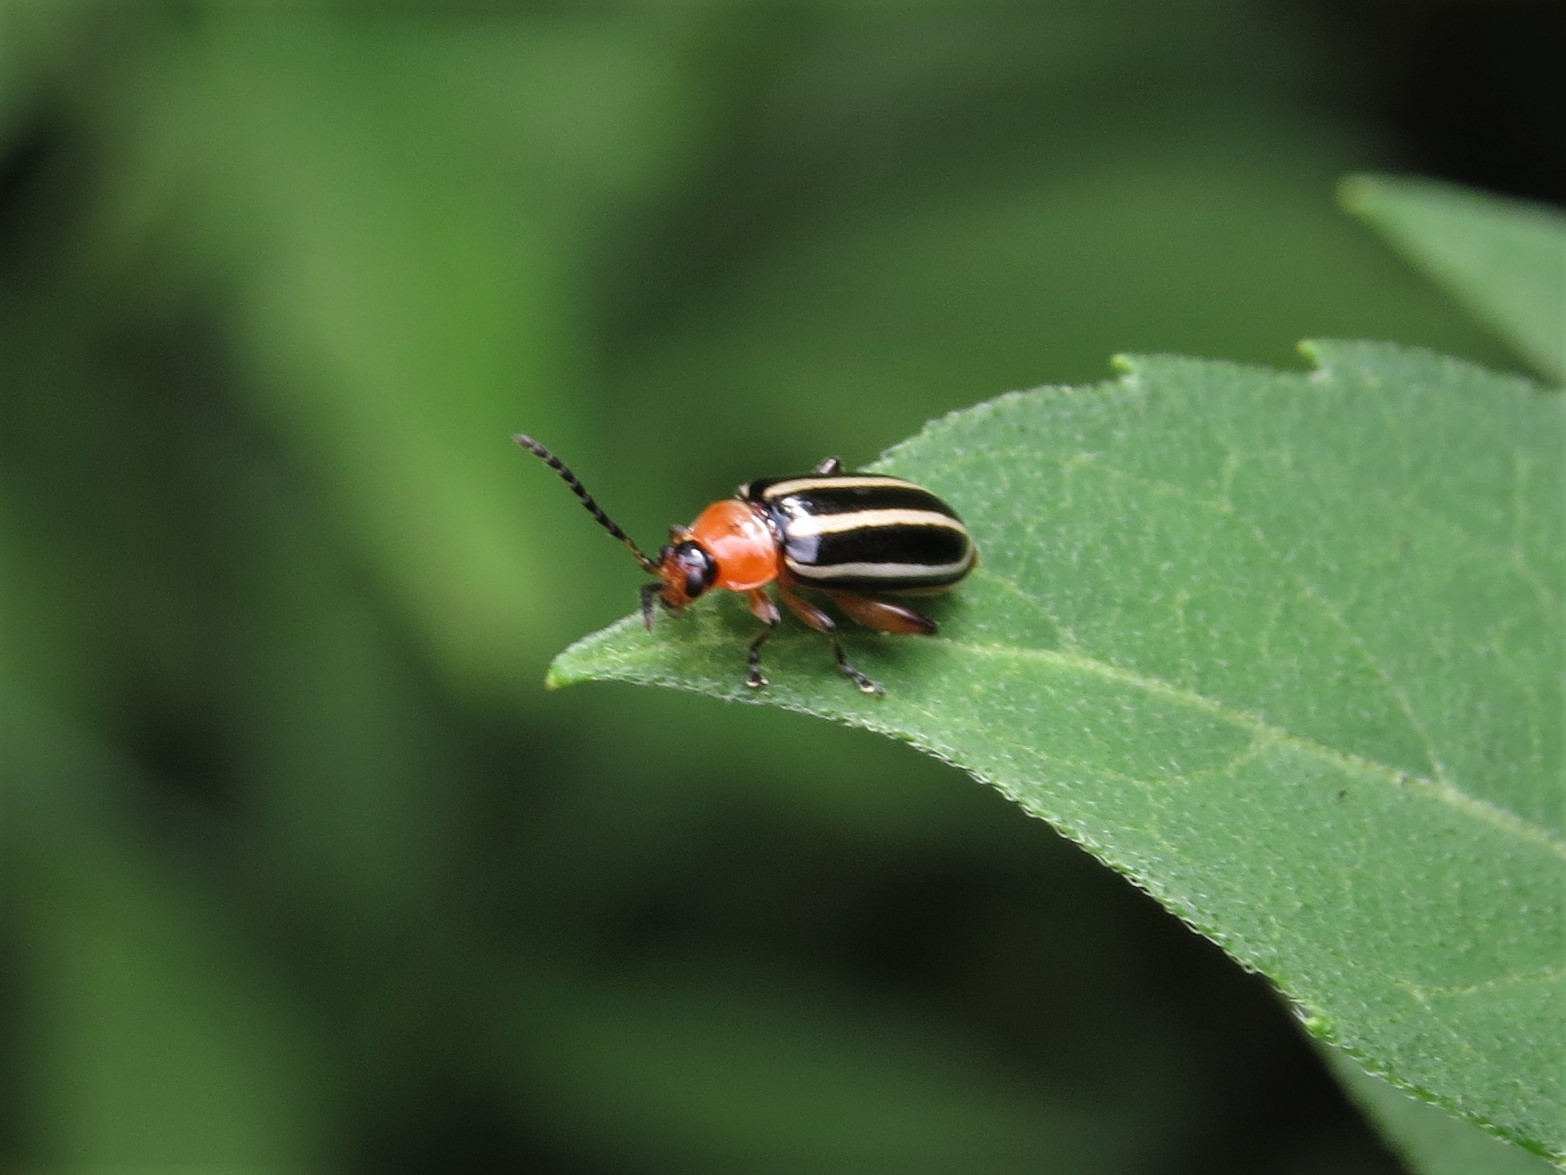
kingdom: Animalia
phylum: Arthropoda
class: Insecta
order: Coleoptera
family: Chrysomelidae
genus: Disonycha
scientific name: Disonycha glabrata
